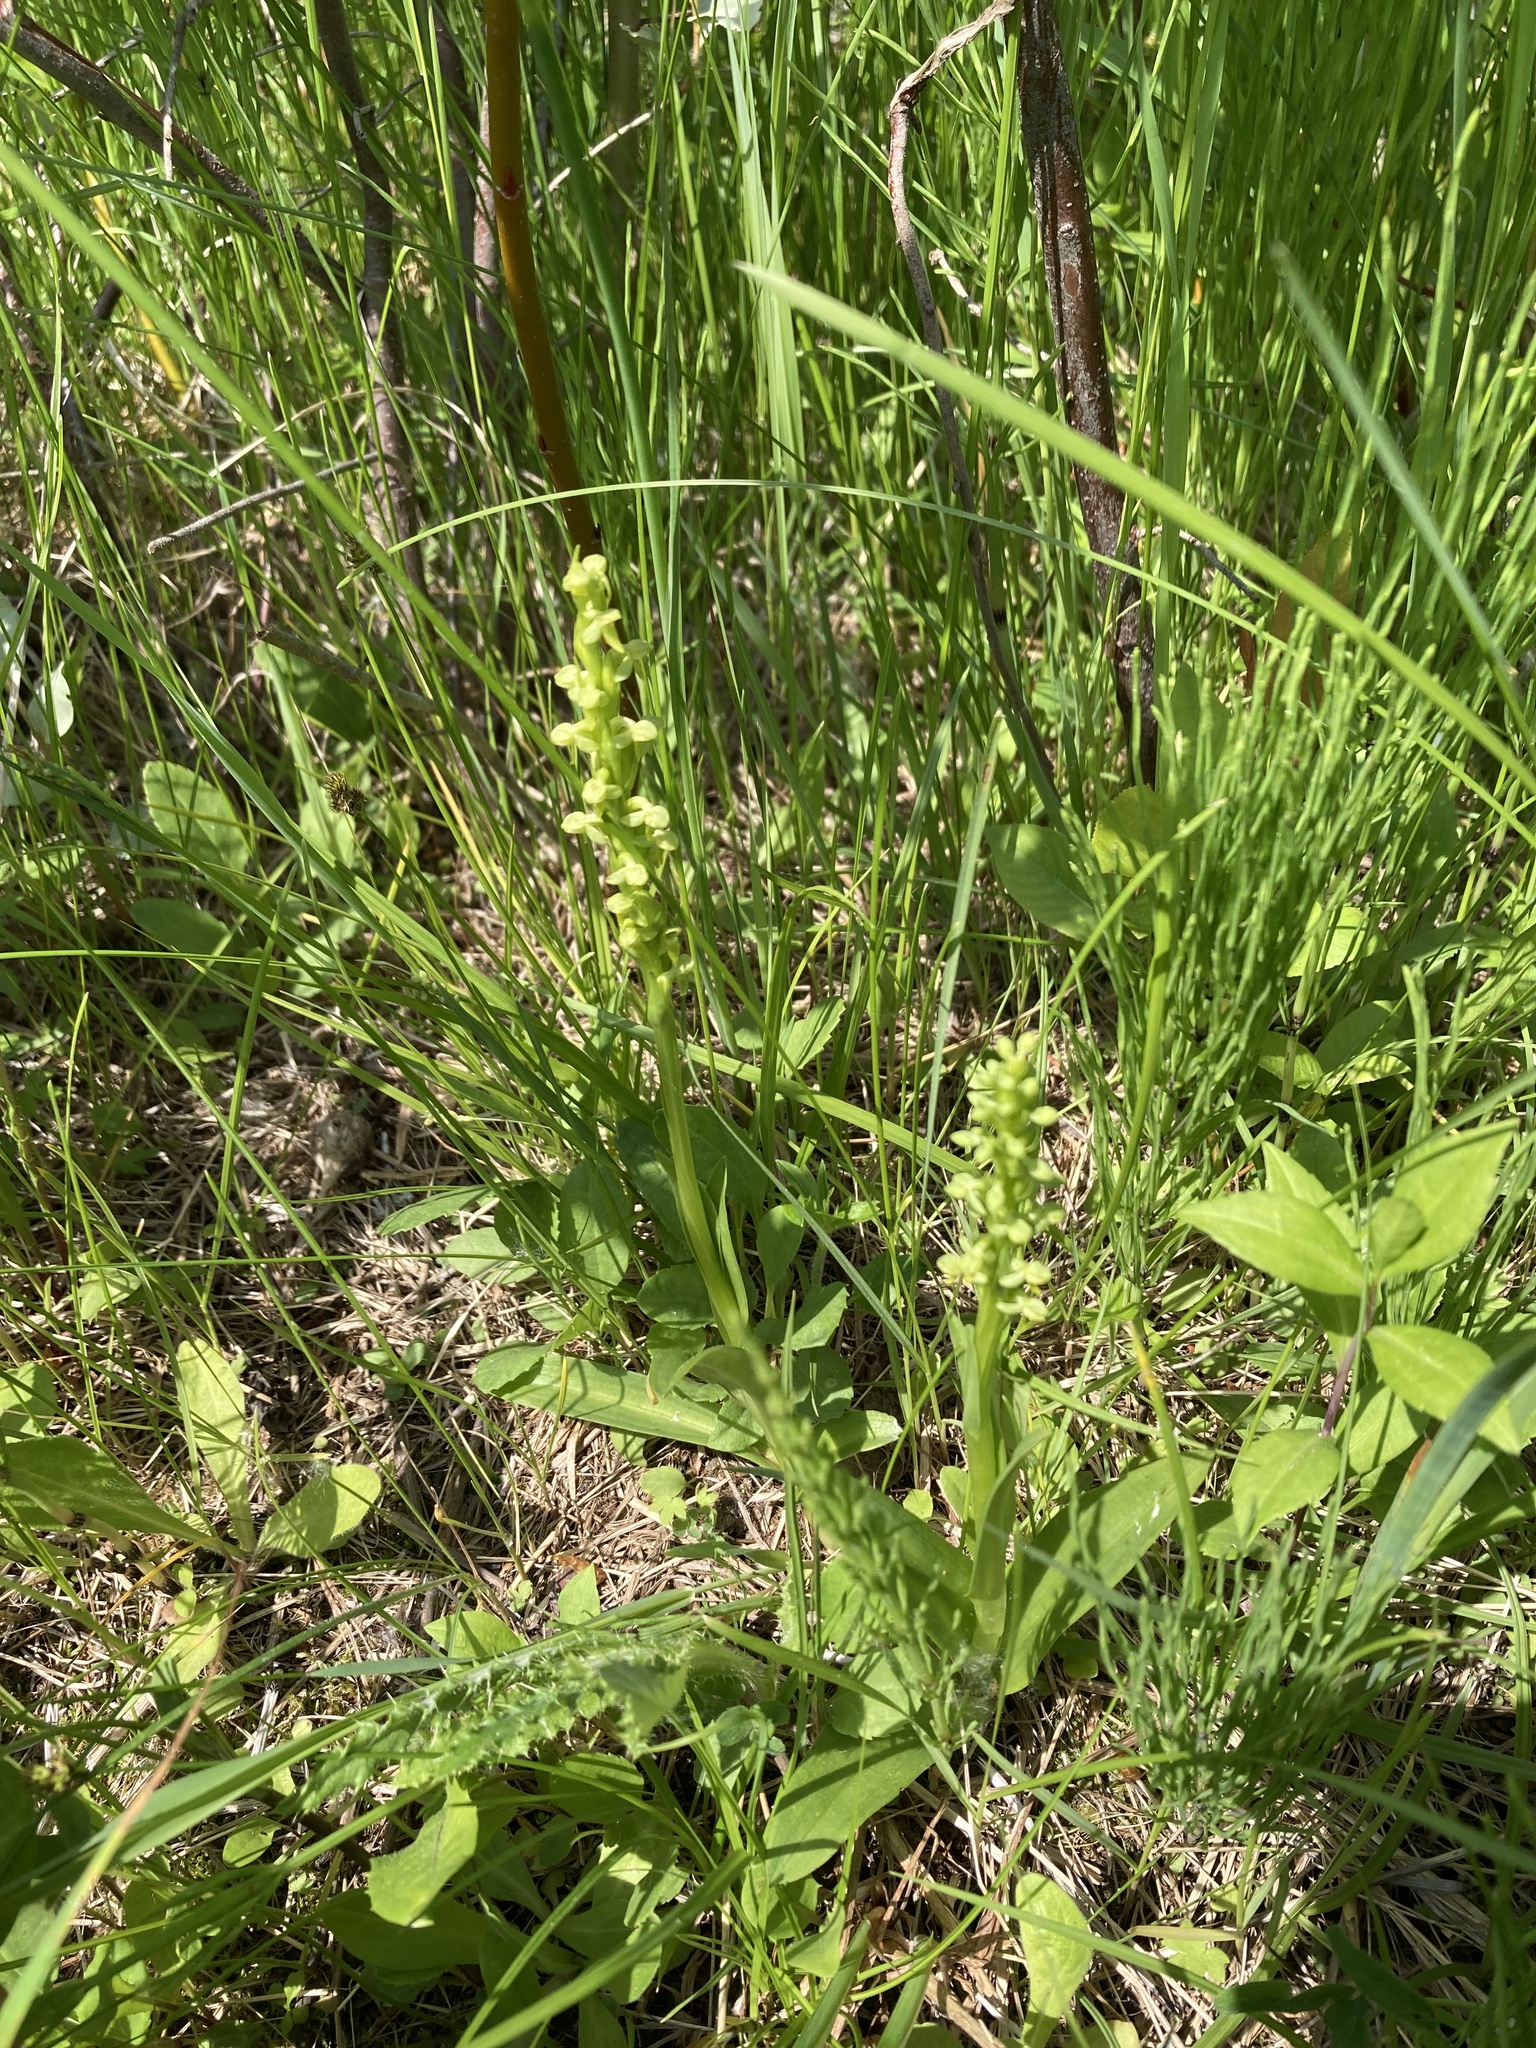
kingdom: Plantae
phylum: Tracheophyta
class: Liliopsida
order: Asparagales
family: Orchidaceae
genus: Platanthera
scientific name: Platanthera aquilonis
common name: Northern green orchid
